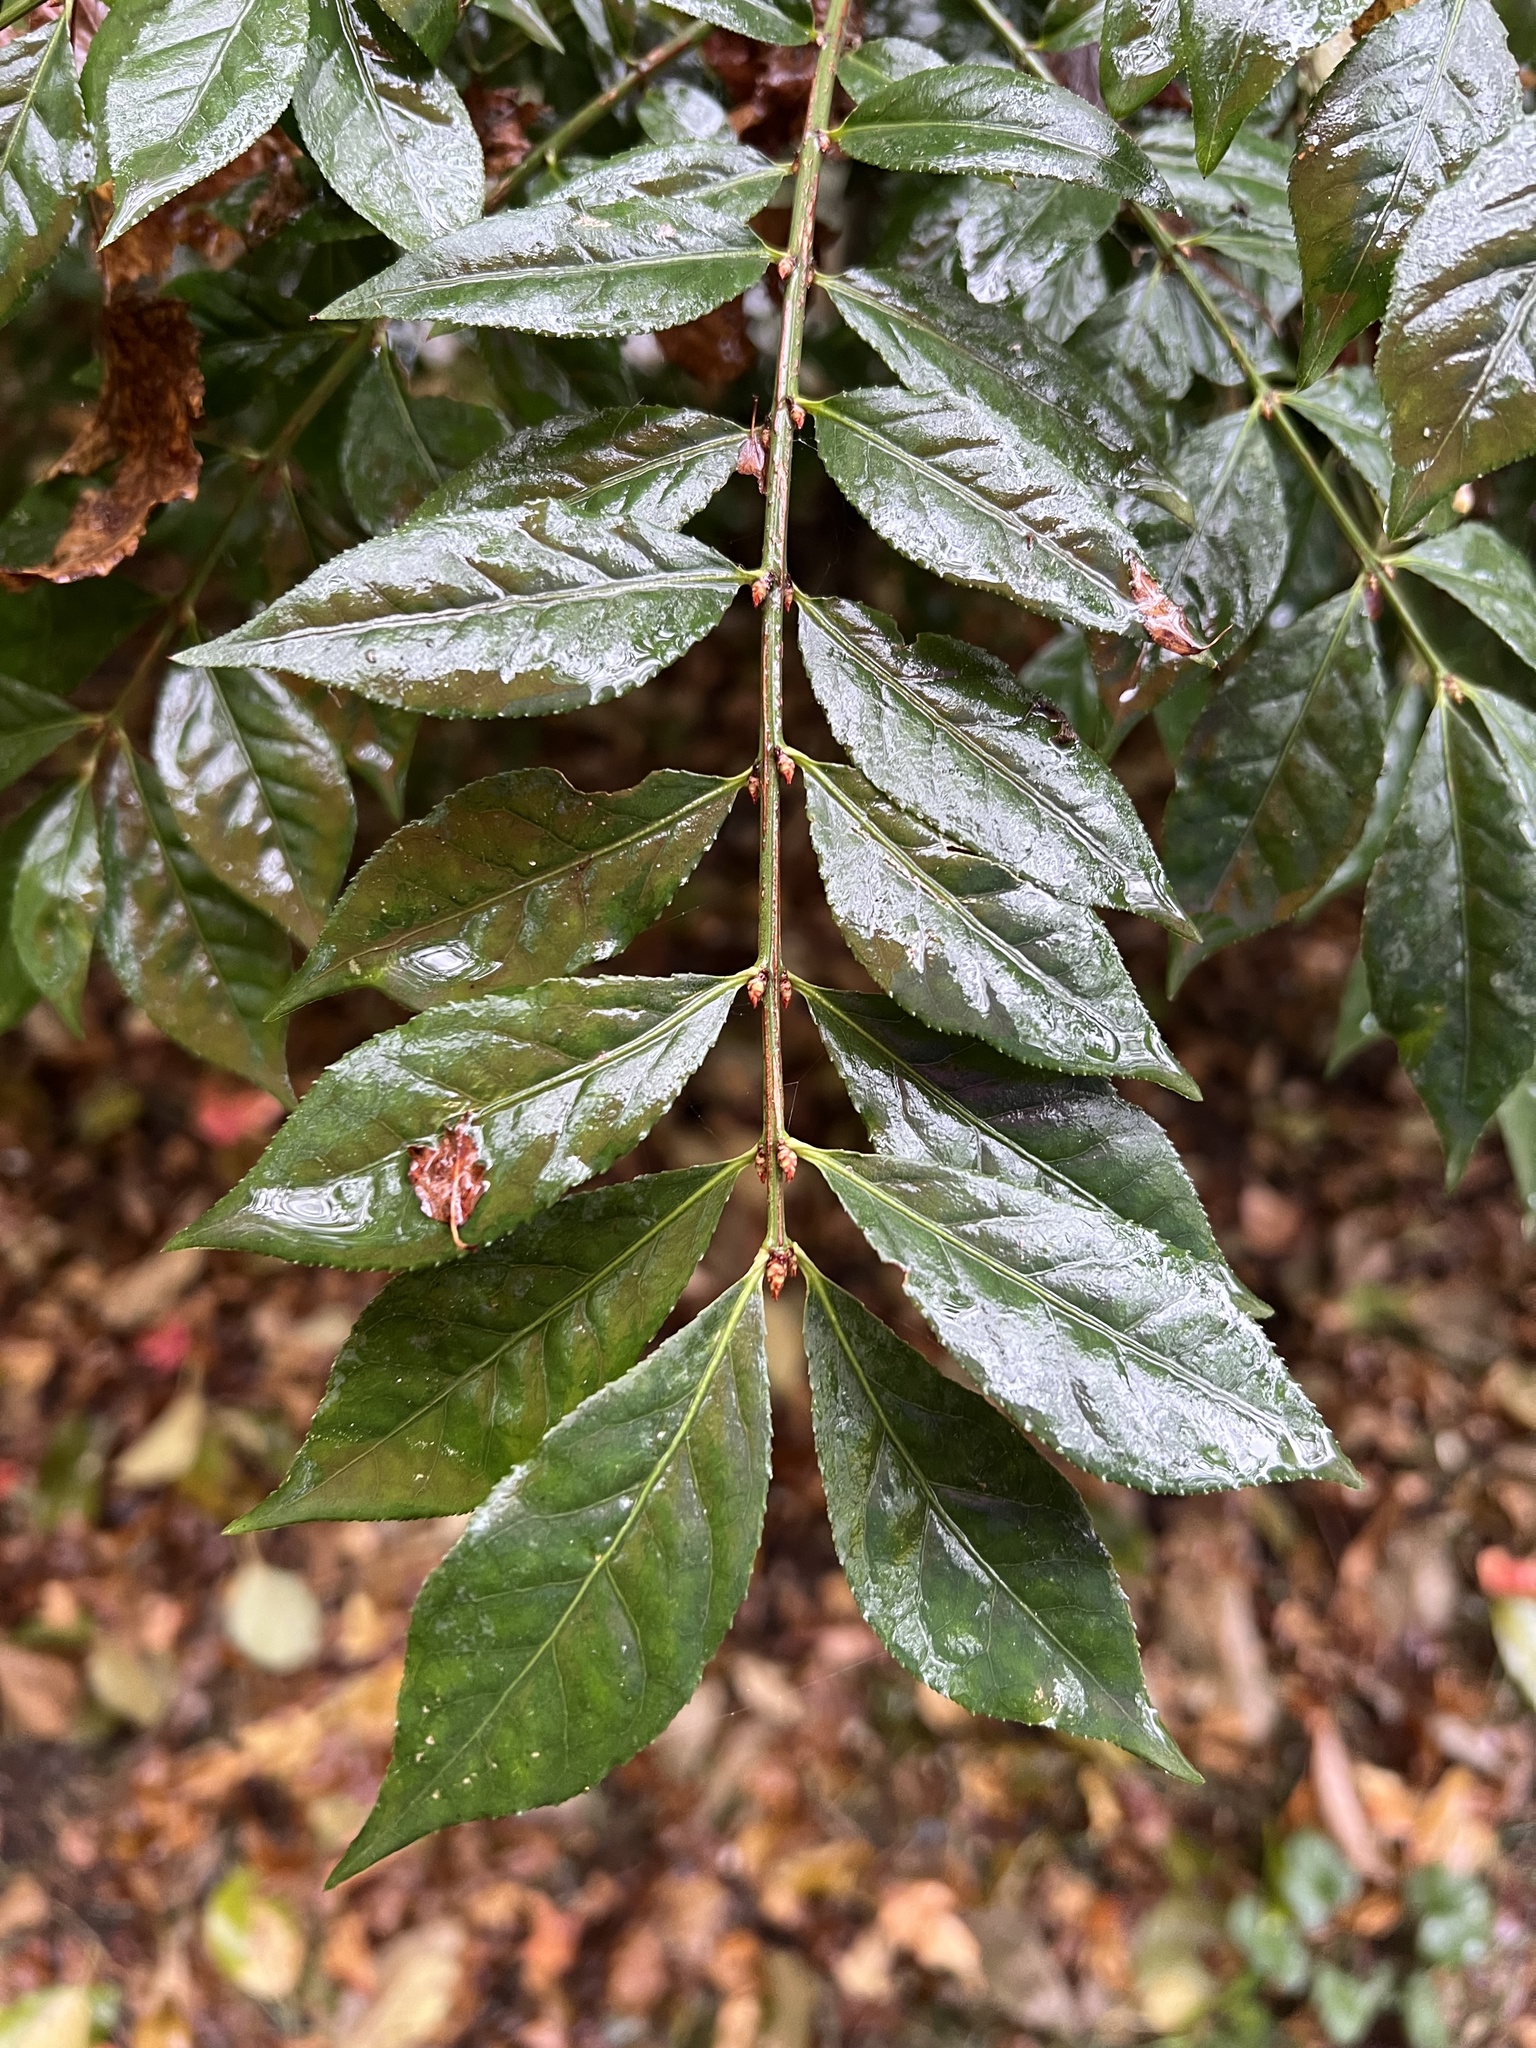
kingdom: Plantae
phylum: Tracheophyta
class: Magnoliopsida
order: Celastrales
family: Celastraceae
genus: Euonymus
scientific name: Euonymus alatus
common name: Winged euonymus
